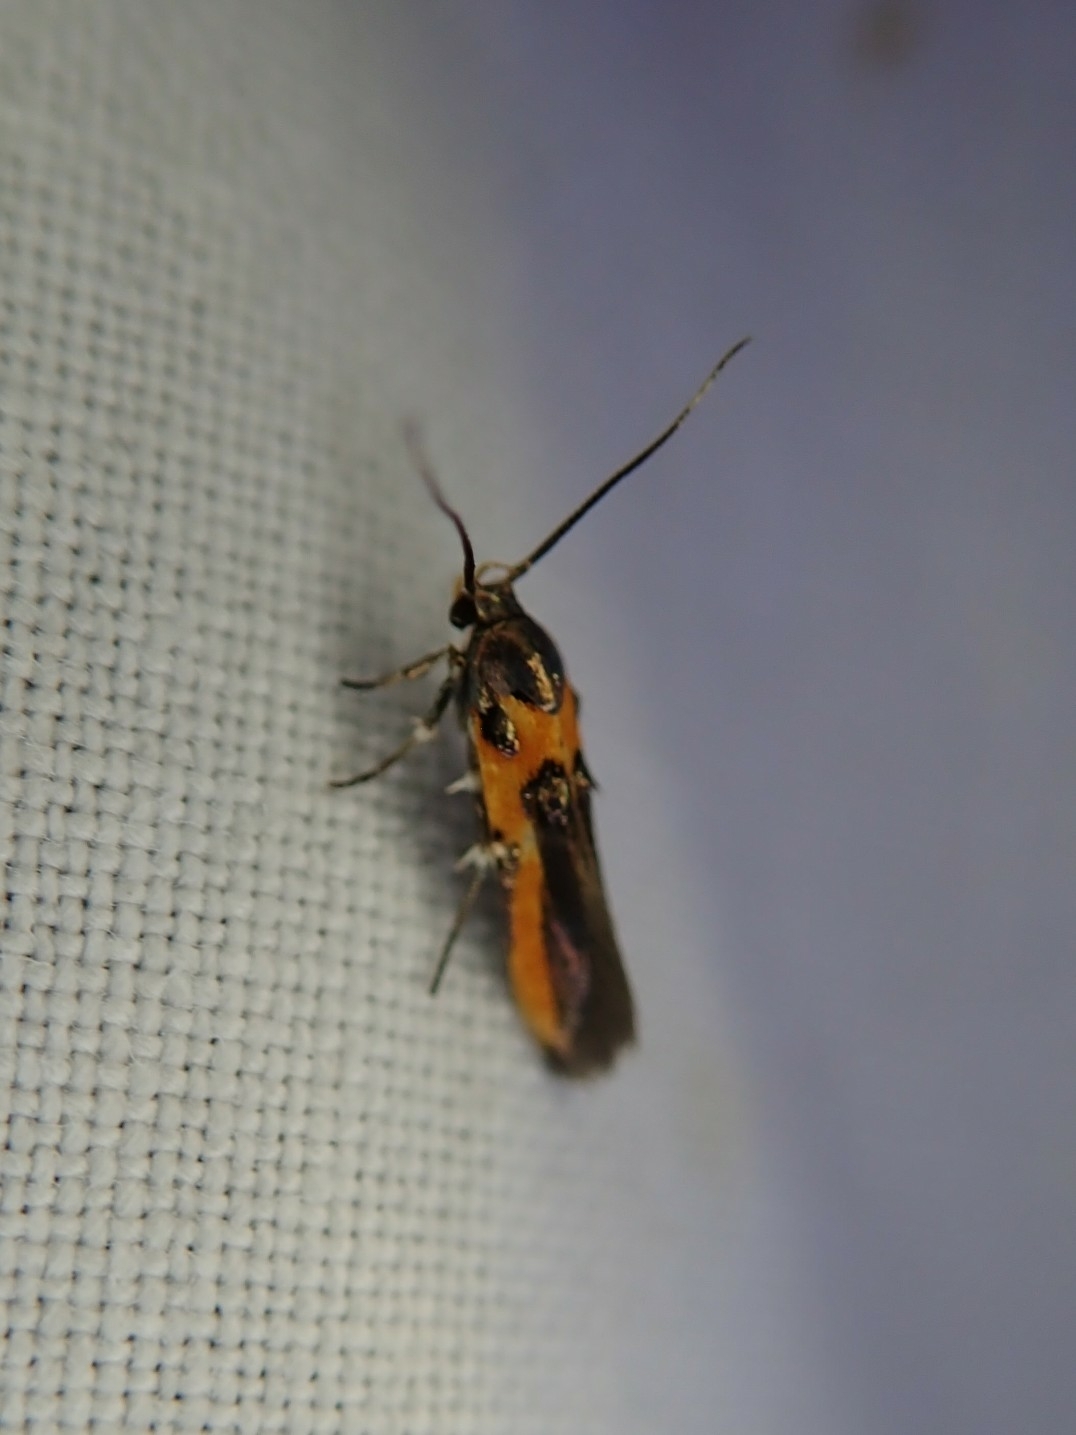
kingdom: Animalia
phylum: Arthropoda
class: Insecta
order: Lepidoptera
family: Cosmopterigidae
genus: Euclemensia
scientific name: Euclemensia bassettella
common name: Kermes scale moth
